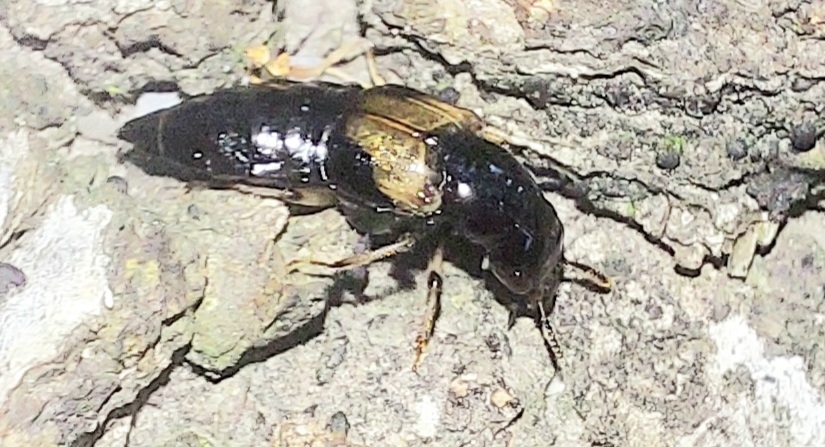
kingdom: Animalia
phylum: Arthropoda
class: Insecta
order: Coleoptera
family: Staphylinidae
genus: Oxyporus
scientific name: Oxyporus maxillosus
